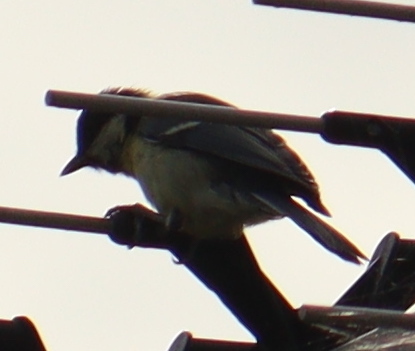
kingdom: Animalia
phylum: Chordata
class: Aves
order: Passeriformes
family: Paridae
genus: Parus
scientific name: Parus major
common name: Great tit
